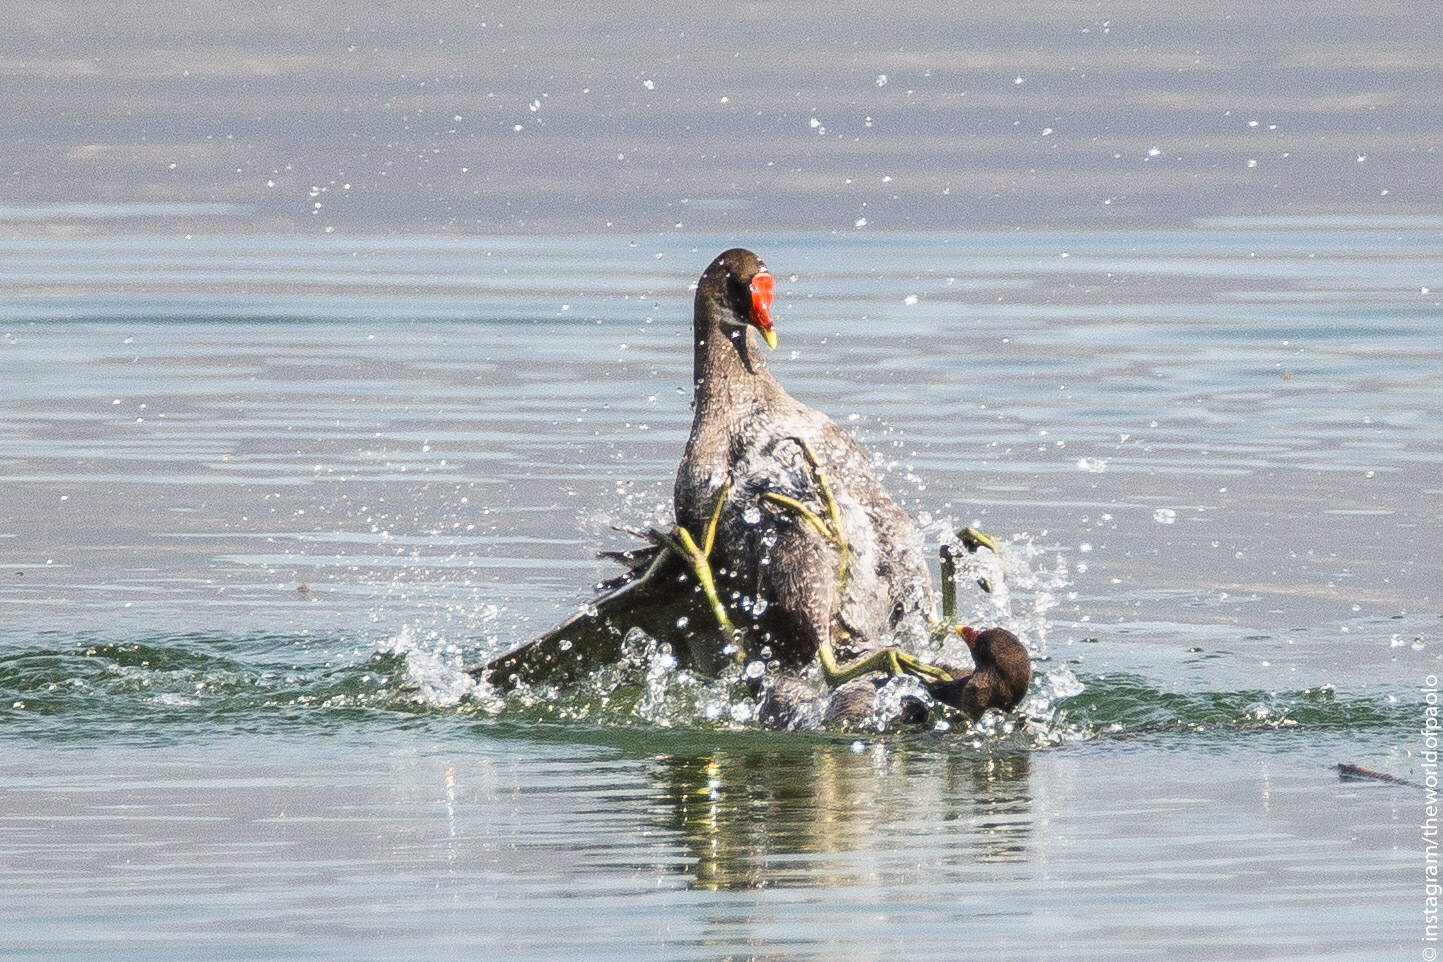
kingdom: Animalia
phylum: Chordata
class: Aves
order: Gruiformes
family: Rallidae
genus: Gallinula
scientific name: Gallinula chloropus
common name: Common moorhen
